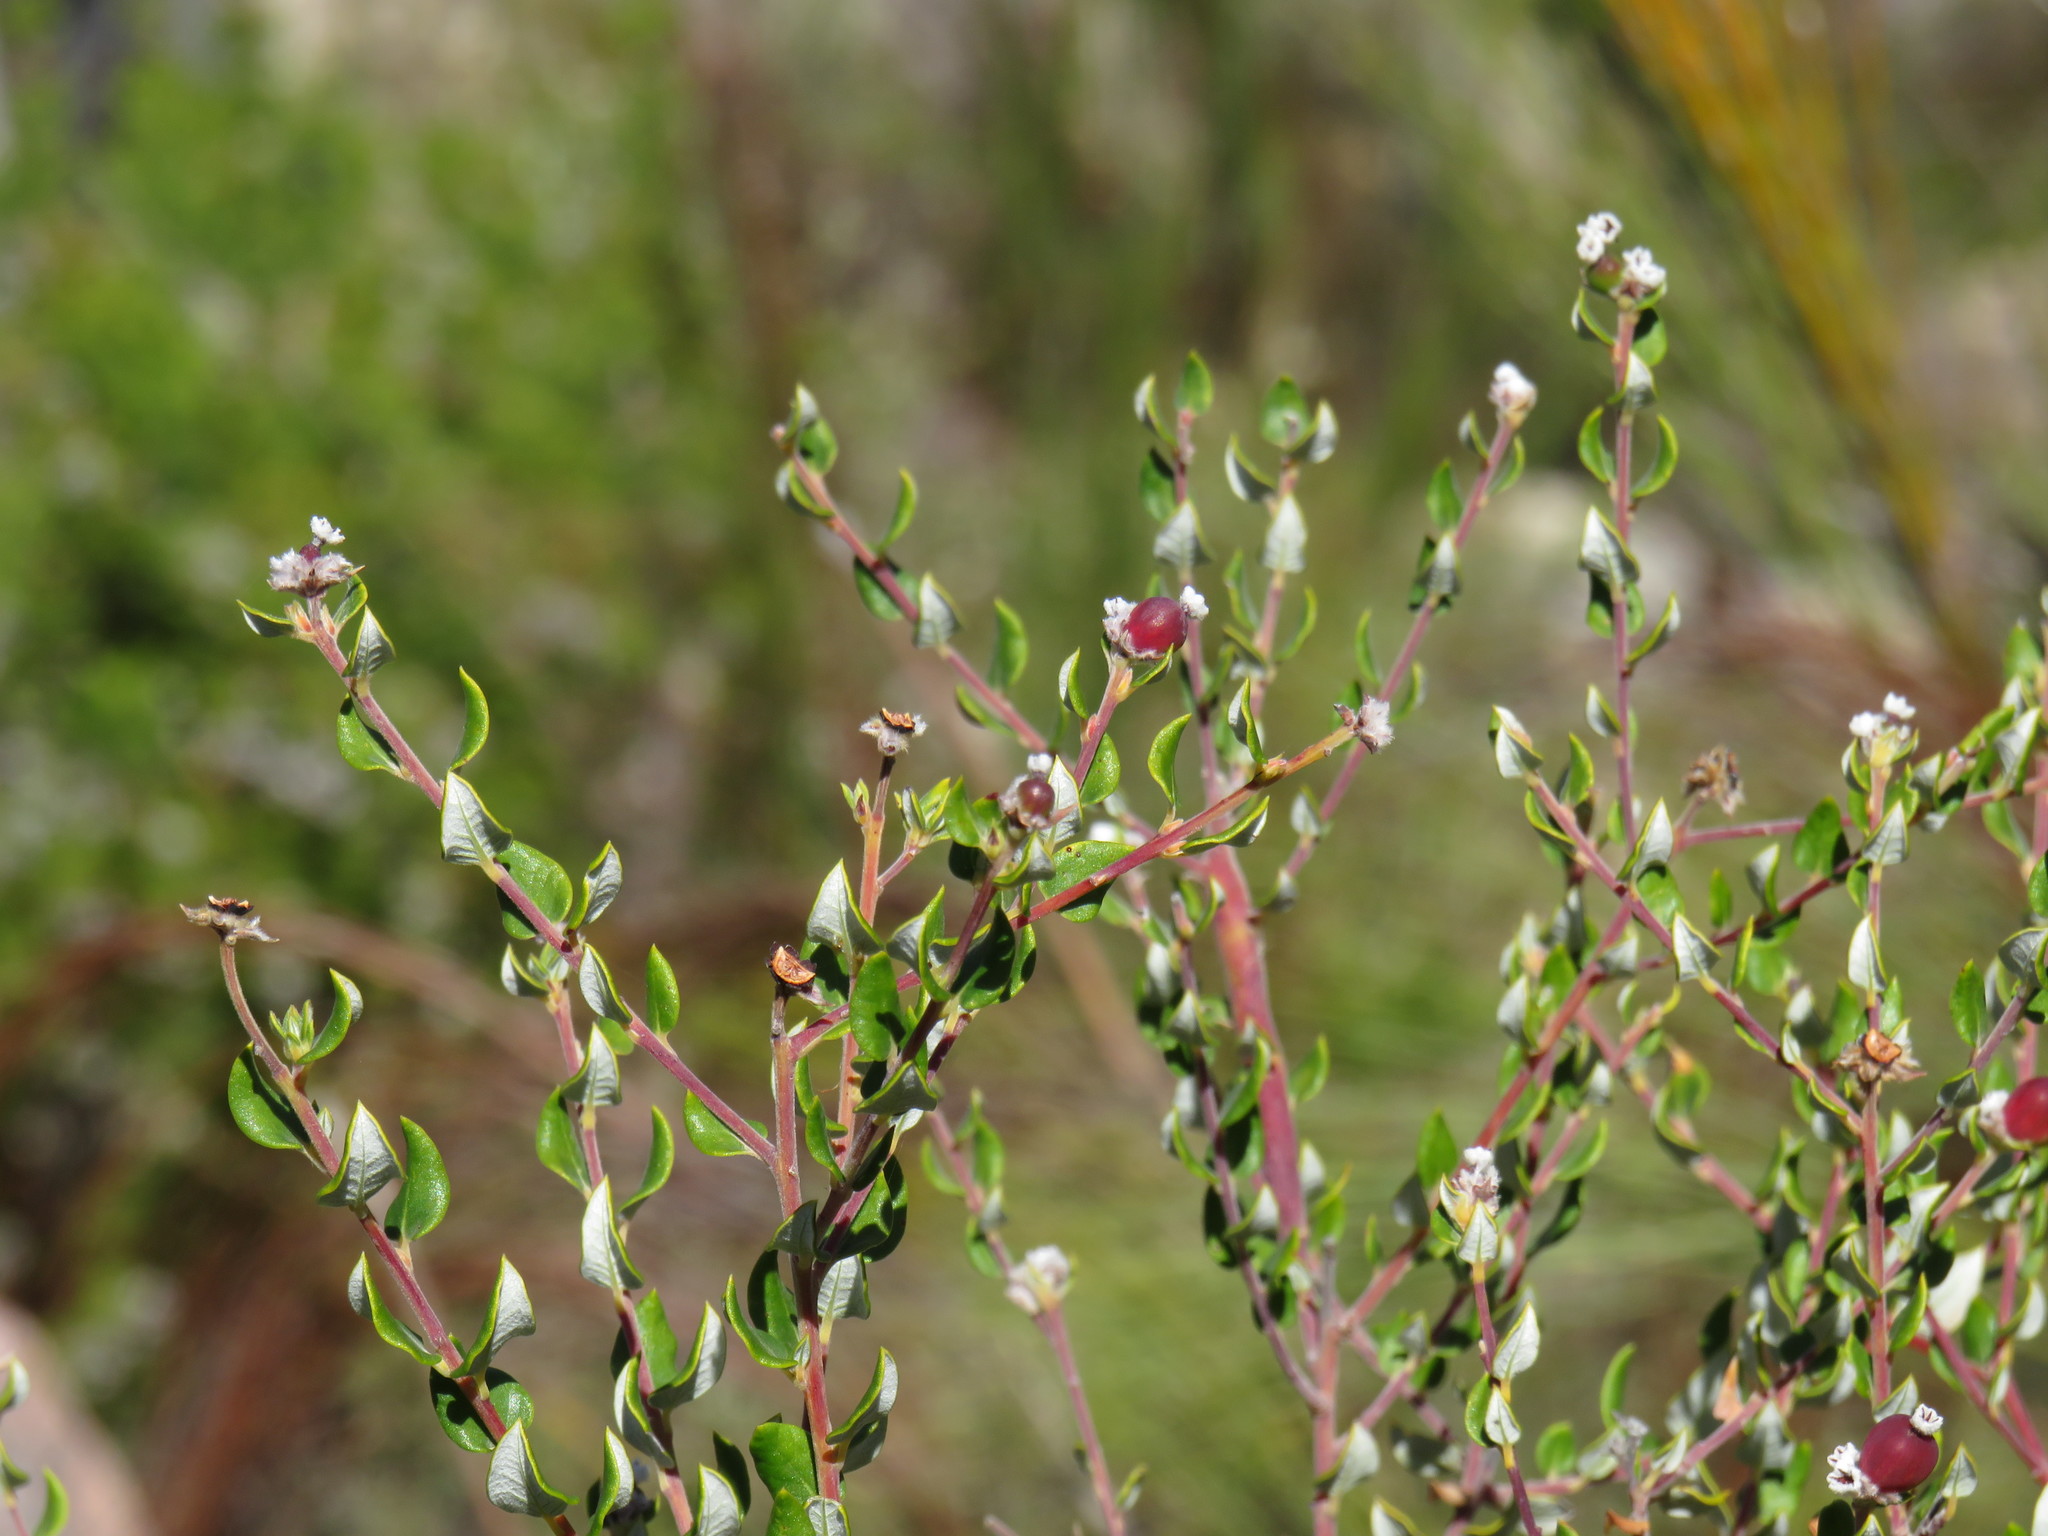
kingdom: Plantae
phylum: Tracheophyta
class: Magnoliopsida
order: Rosales
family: Rhamnaceae
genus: Phylica
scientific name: Phylica nervosa
